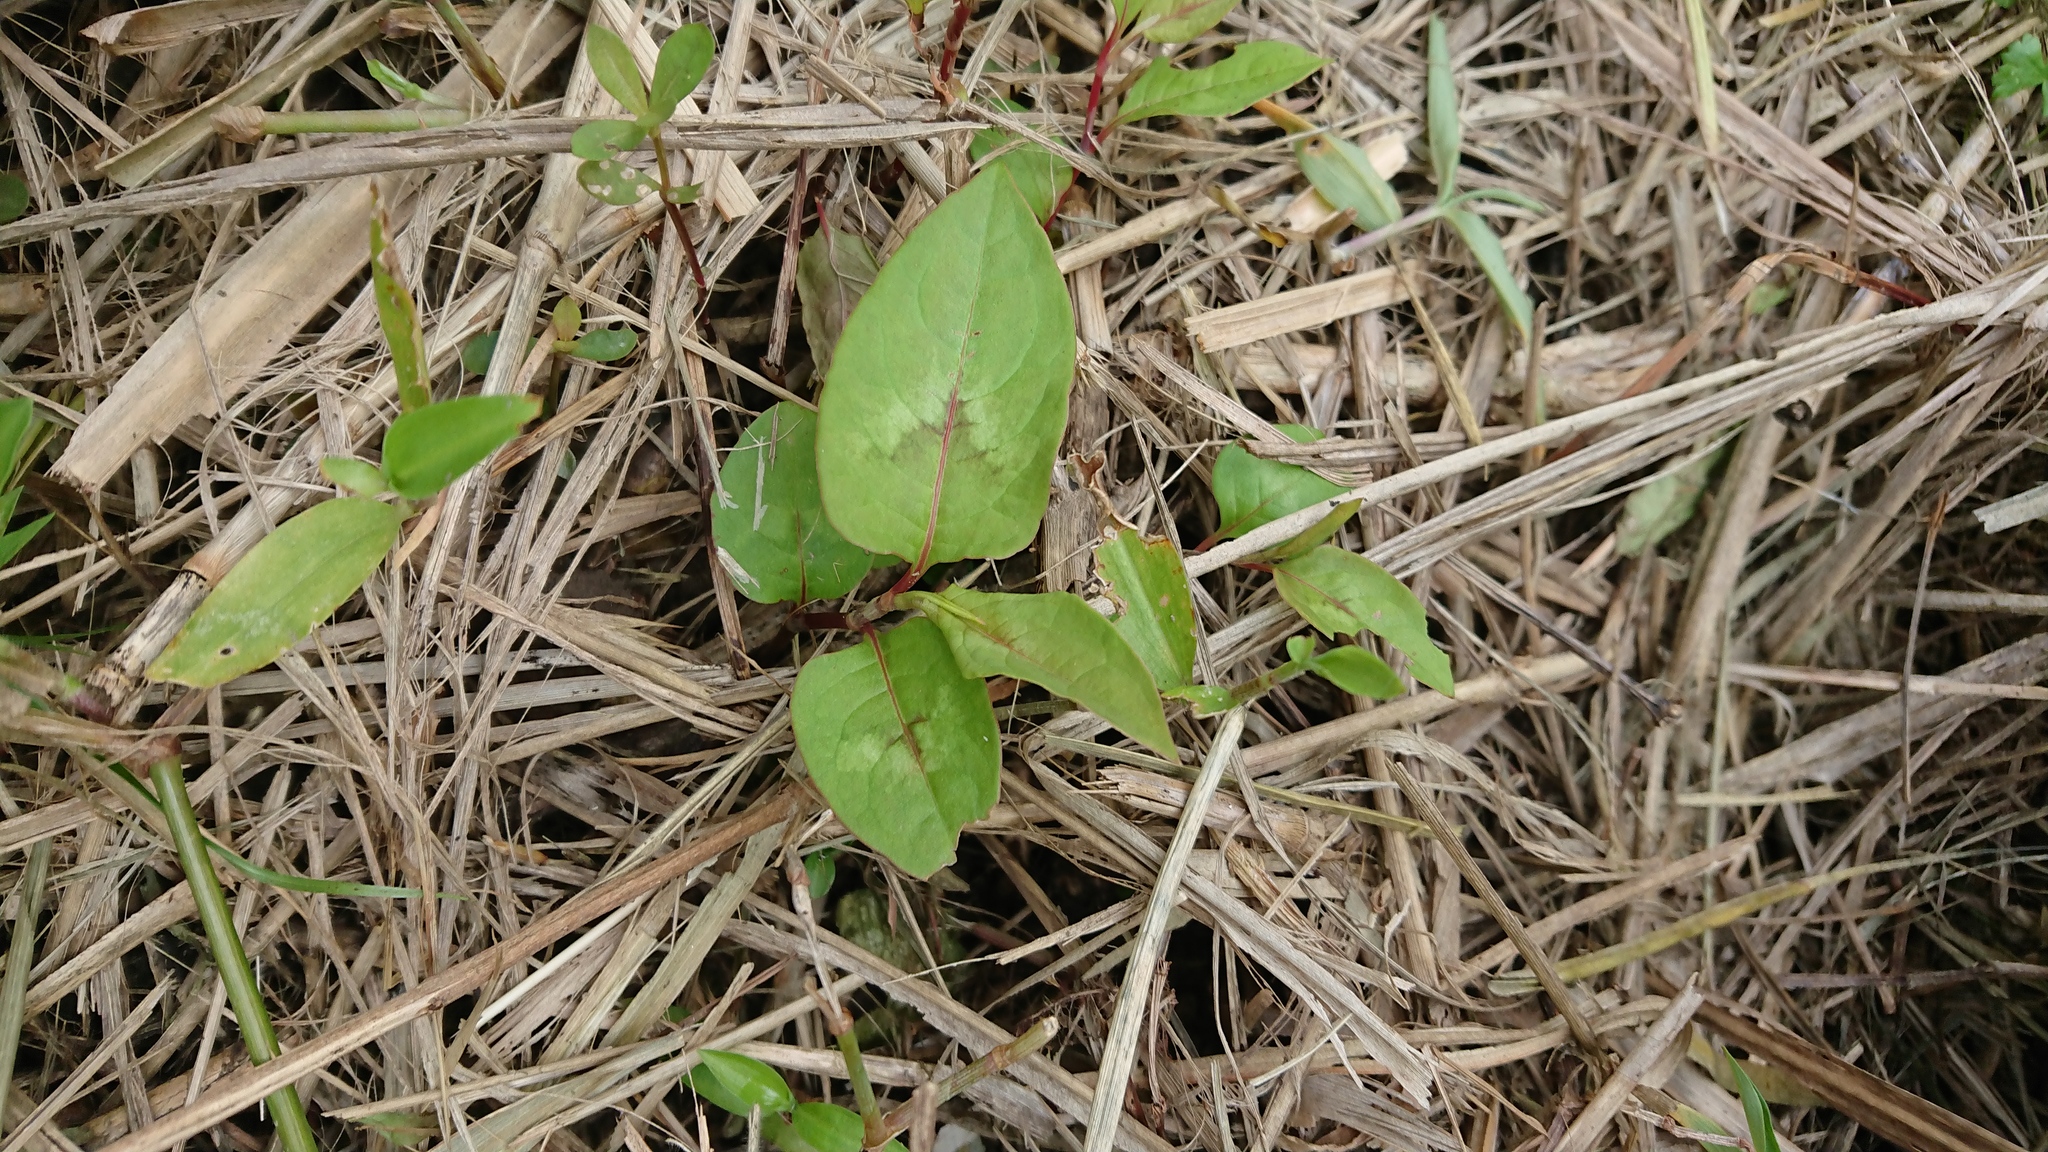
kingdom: Plantae
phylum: Tracheophyta
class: Magnoliopsida
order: Caryophyllales
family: Polygonaceae
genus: Persicaria
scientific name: Persicaria chinensis
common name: Chinese knotweed
